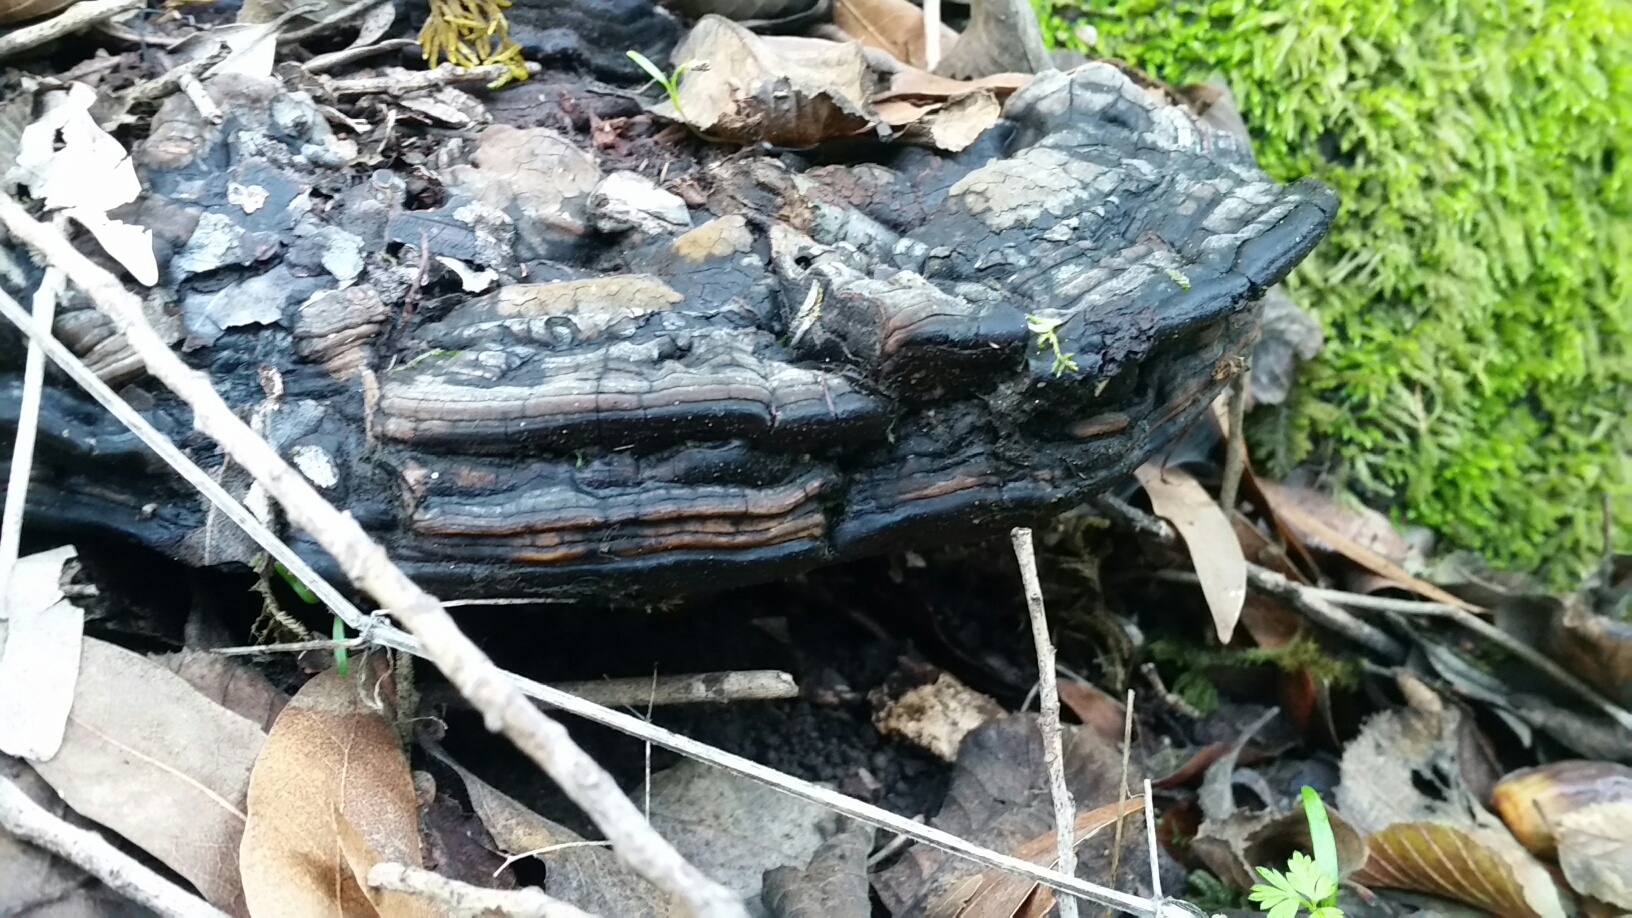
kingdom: Fungi
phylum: Basidiomycota
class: Agaricomycetes
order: Polyporales
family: Polyporaceae
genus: Ganoderma
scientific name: Ganoderma brownii
